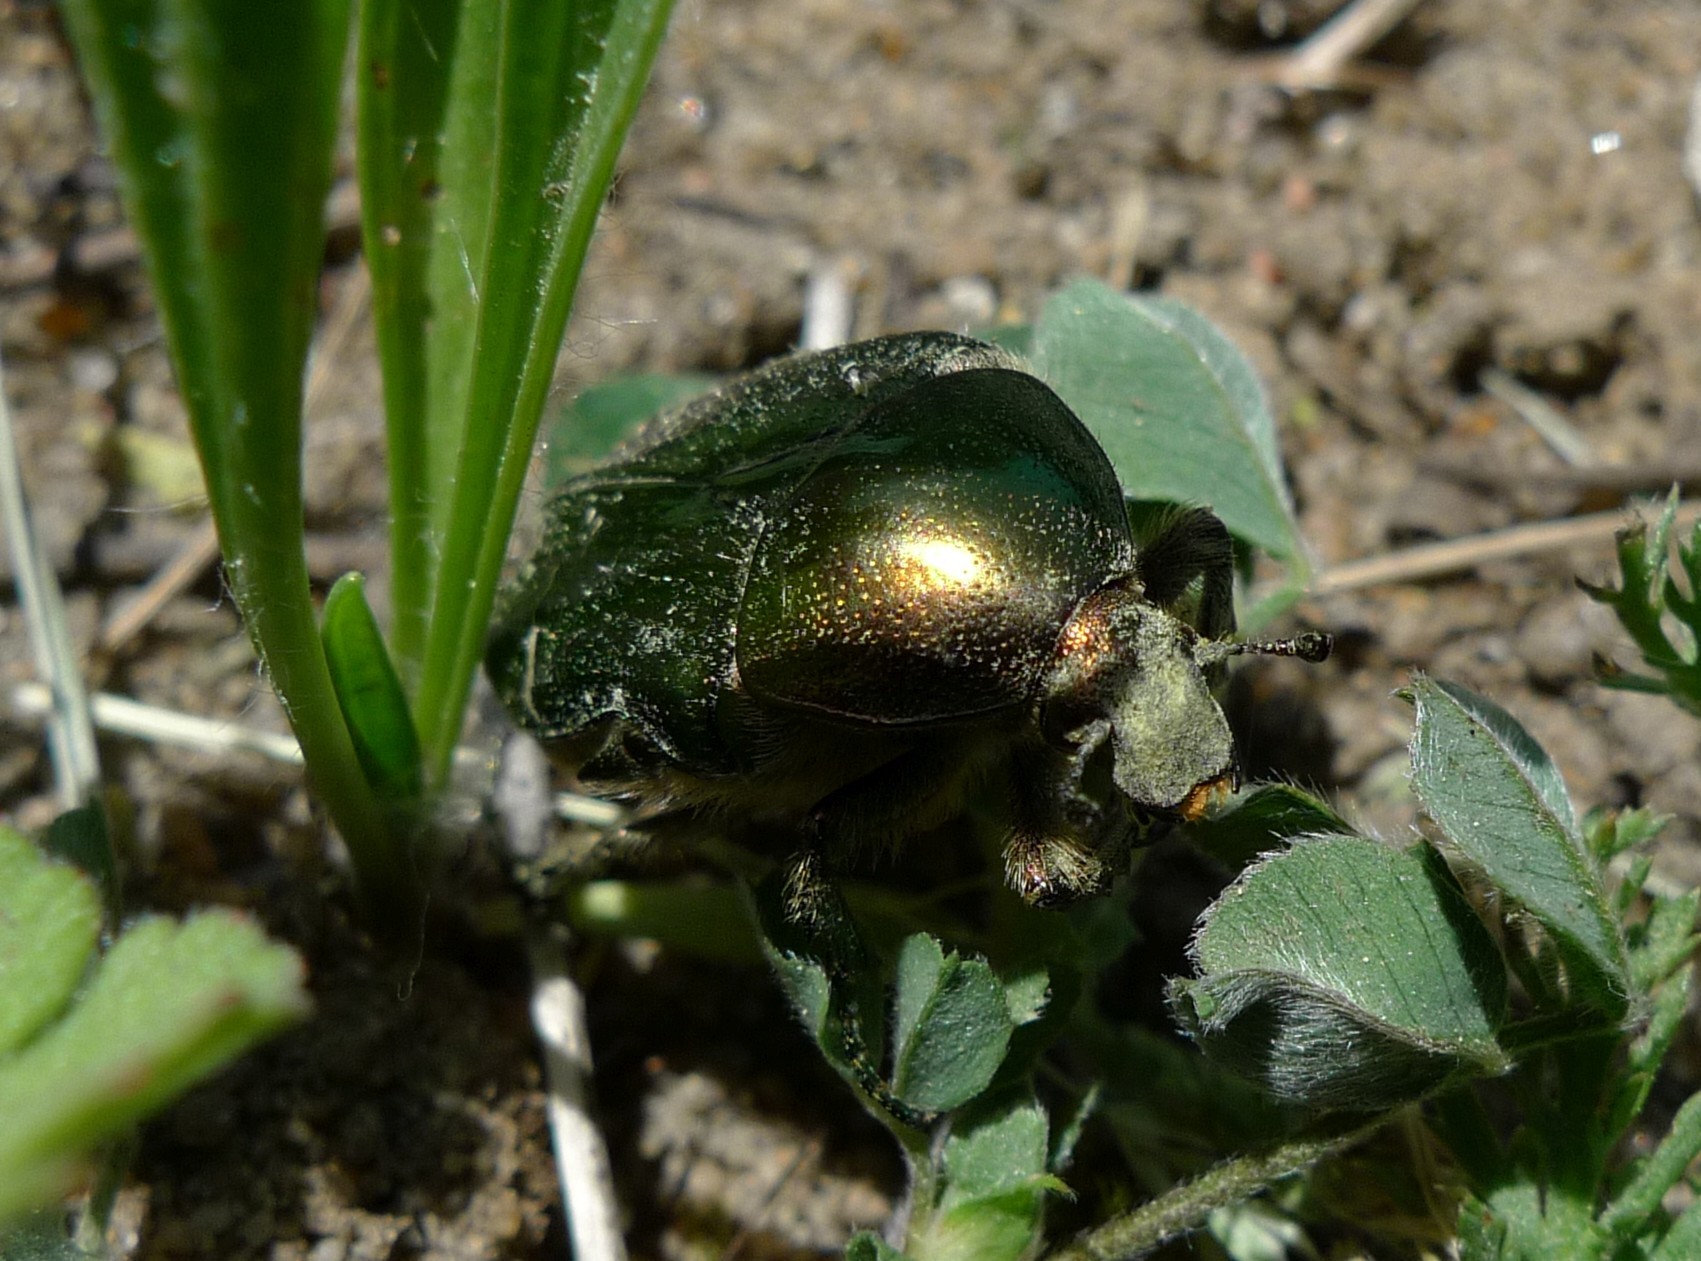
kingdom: Animalia
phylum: Arthropoda
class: Insecta
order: Coleoptera
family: Scarabaeidae
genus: Cetonia
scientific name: Cetonia aurata
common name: Rose chafer
